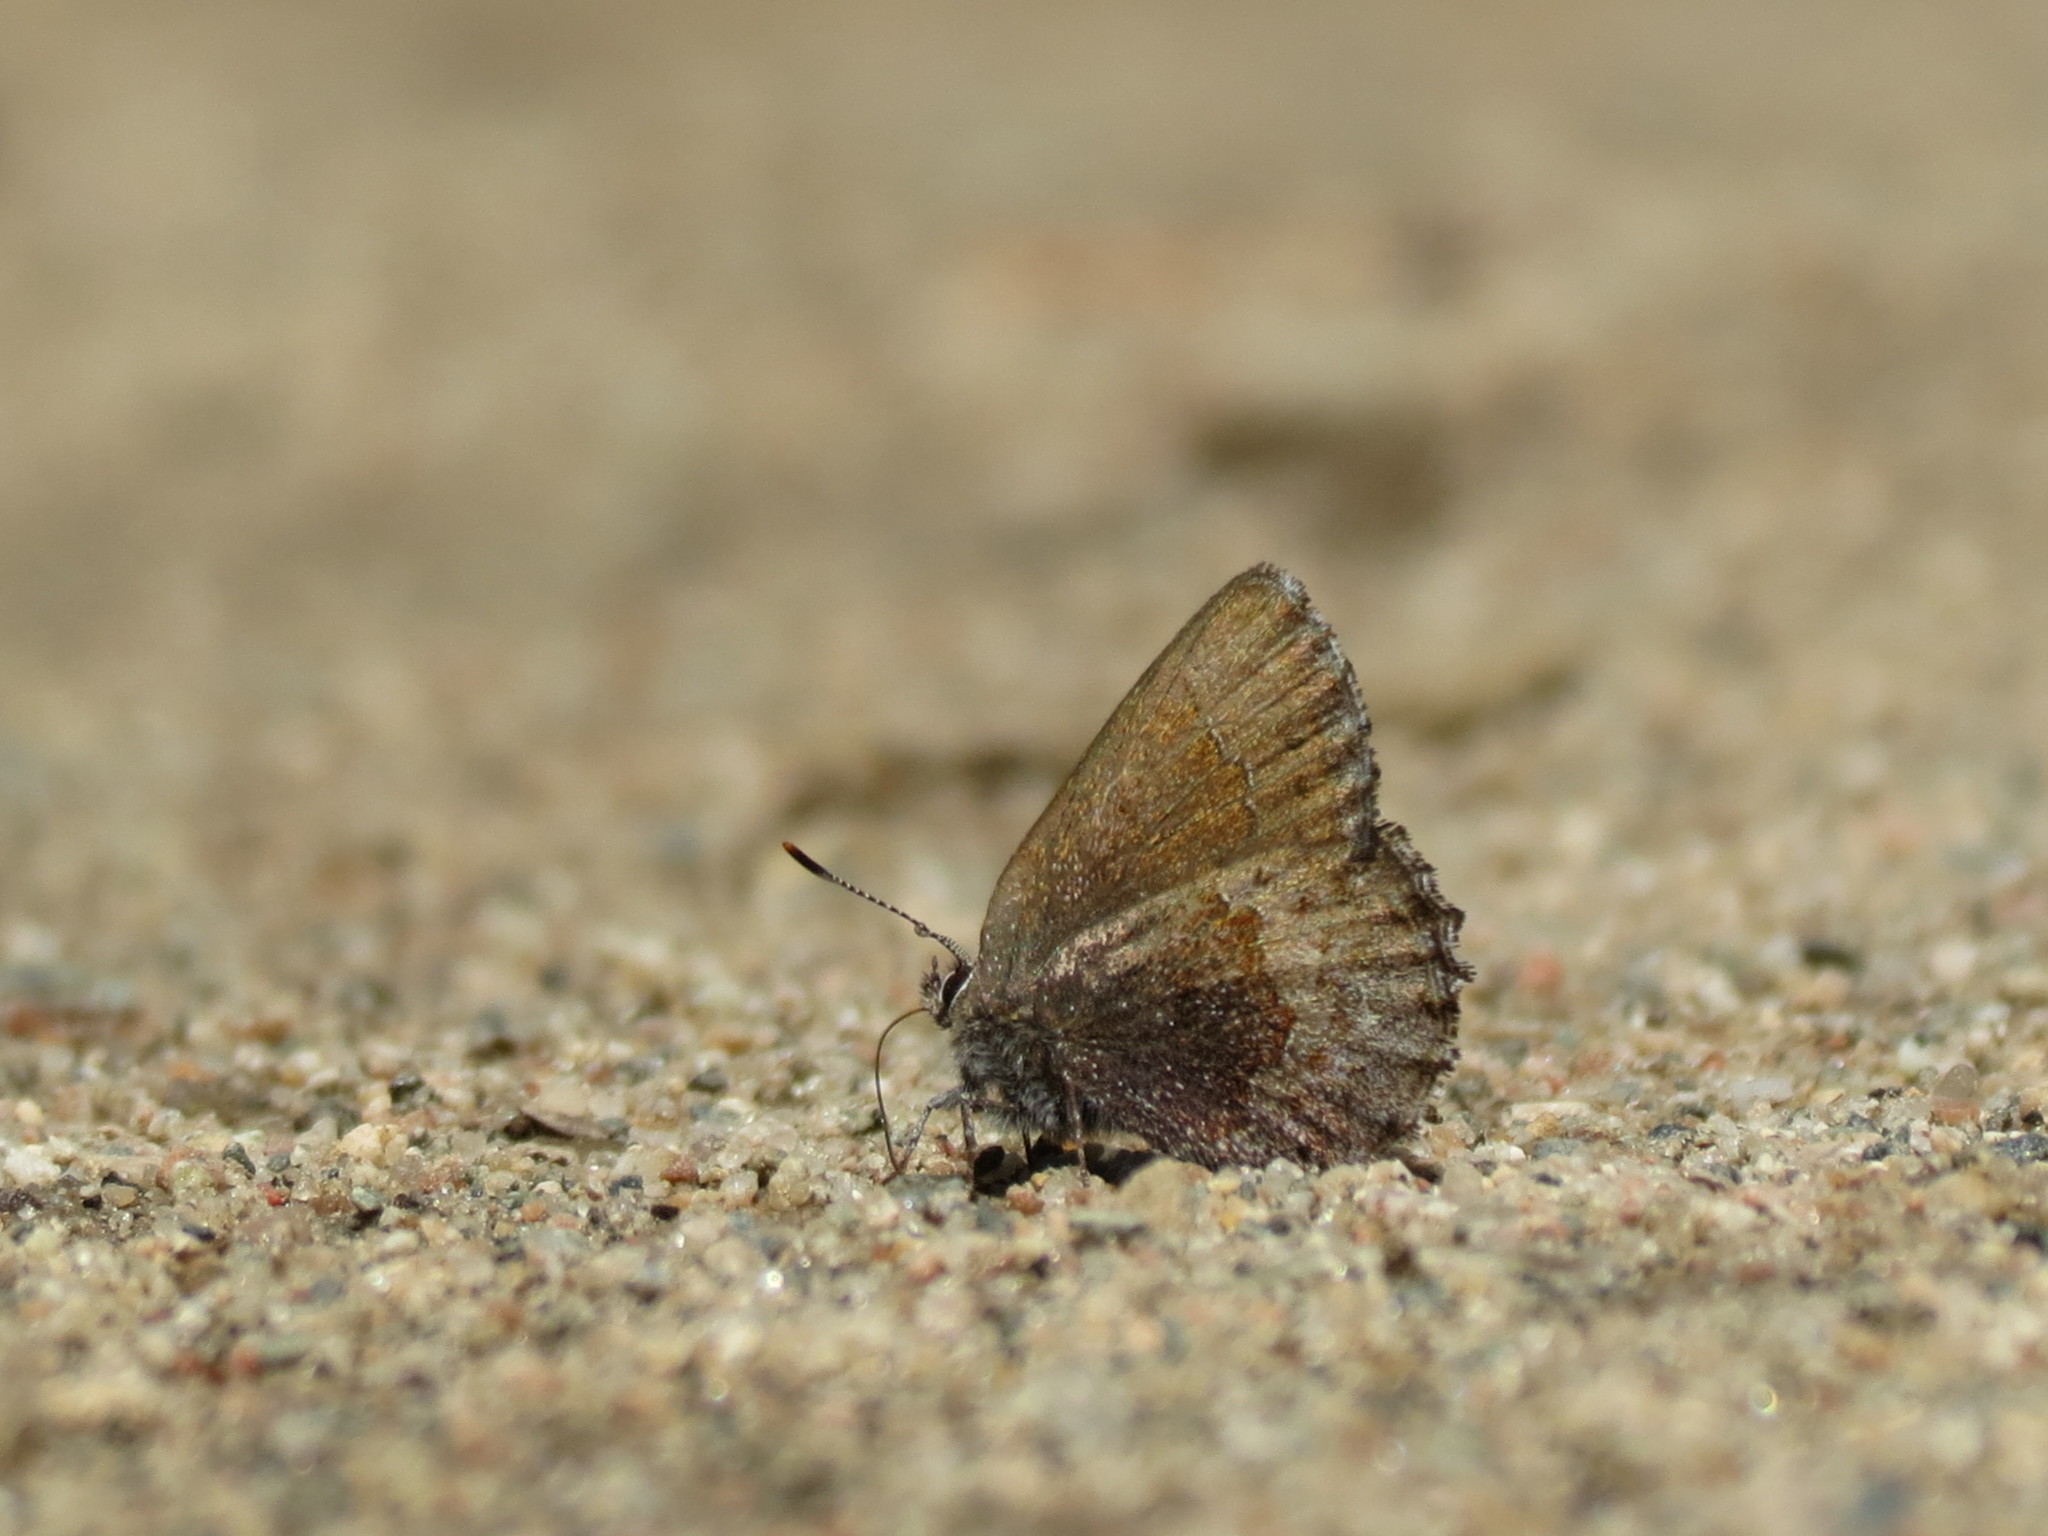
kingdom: Animalia
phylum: Arthropoda
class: Insecta
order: Lepidoptera
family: Lycaenidae
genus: Callophrys
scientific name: Callophrys polios
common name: Hoary elfin
